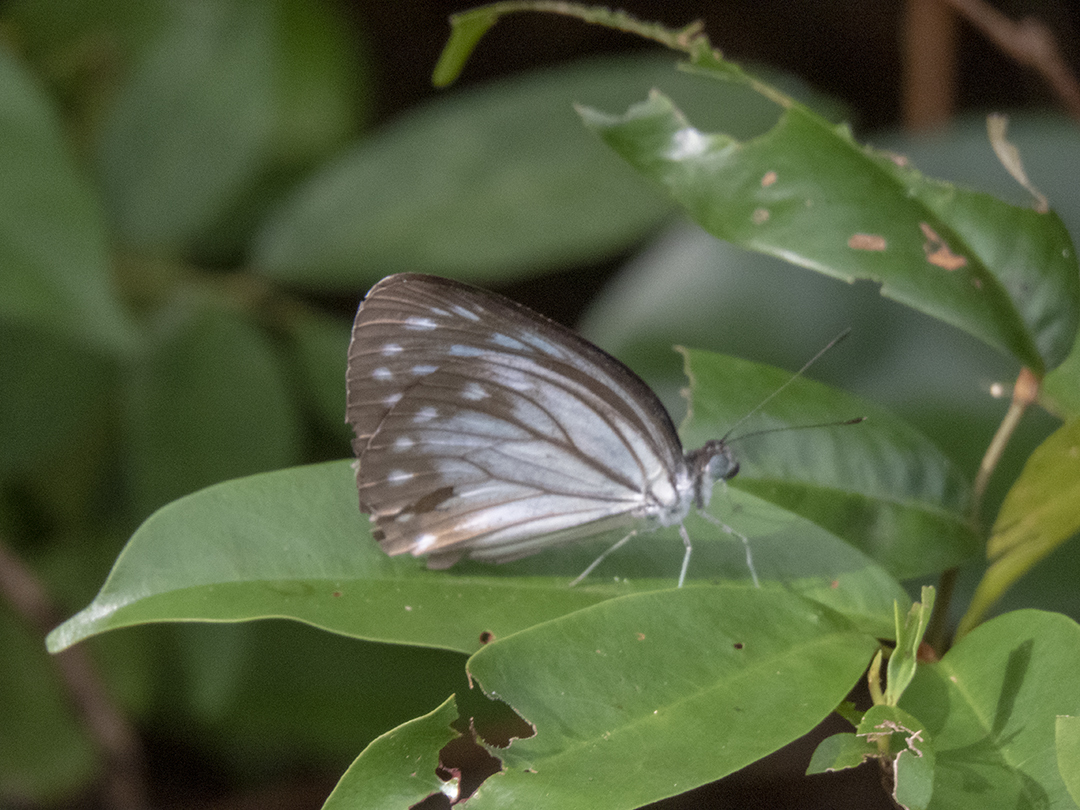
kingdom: Animalia
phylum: Arthropoda
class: Insecta
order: Lepidoptera
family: Pieridae
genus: Pareronia
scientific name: Pareronia hippia
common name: Indian wanderer
